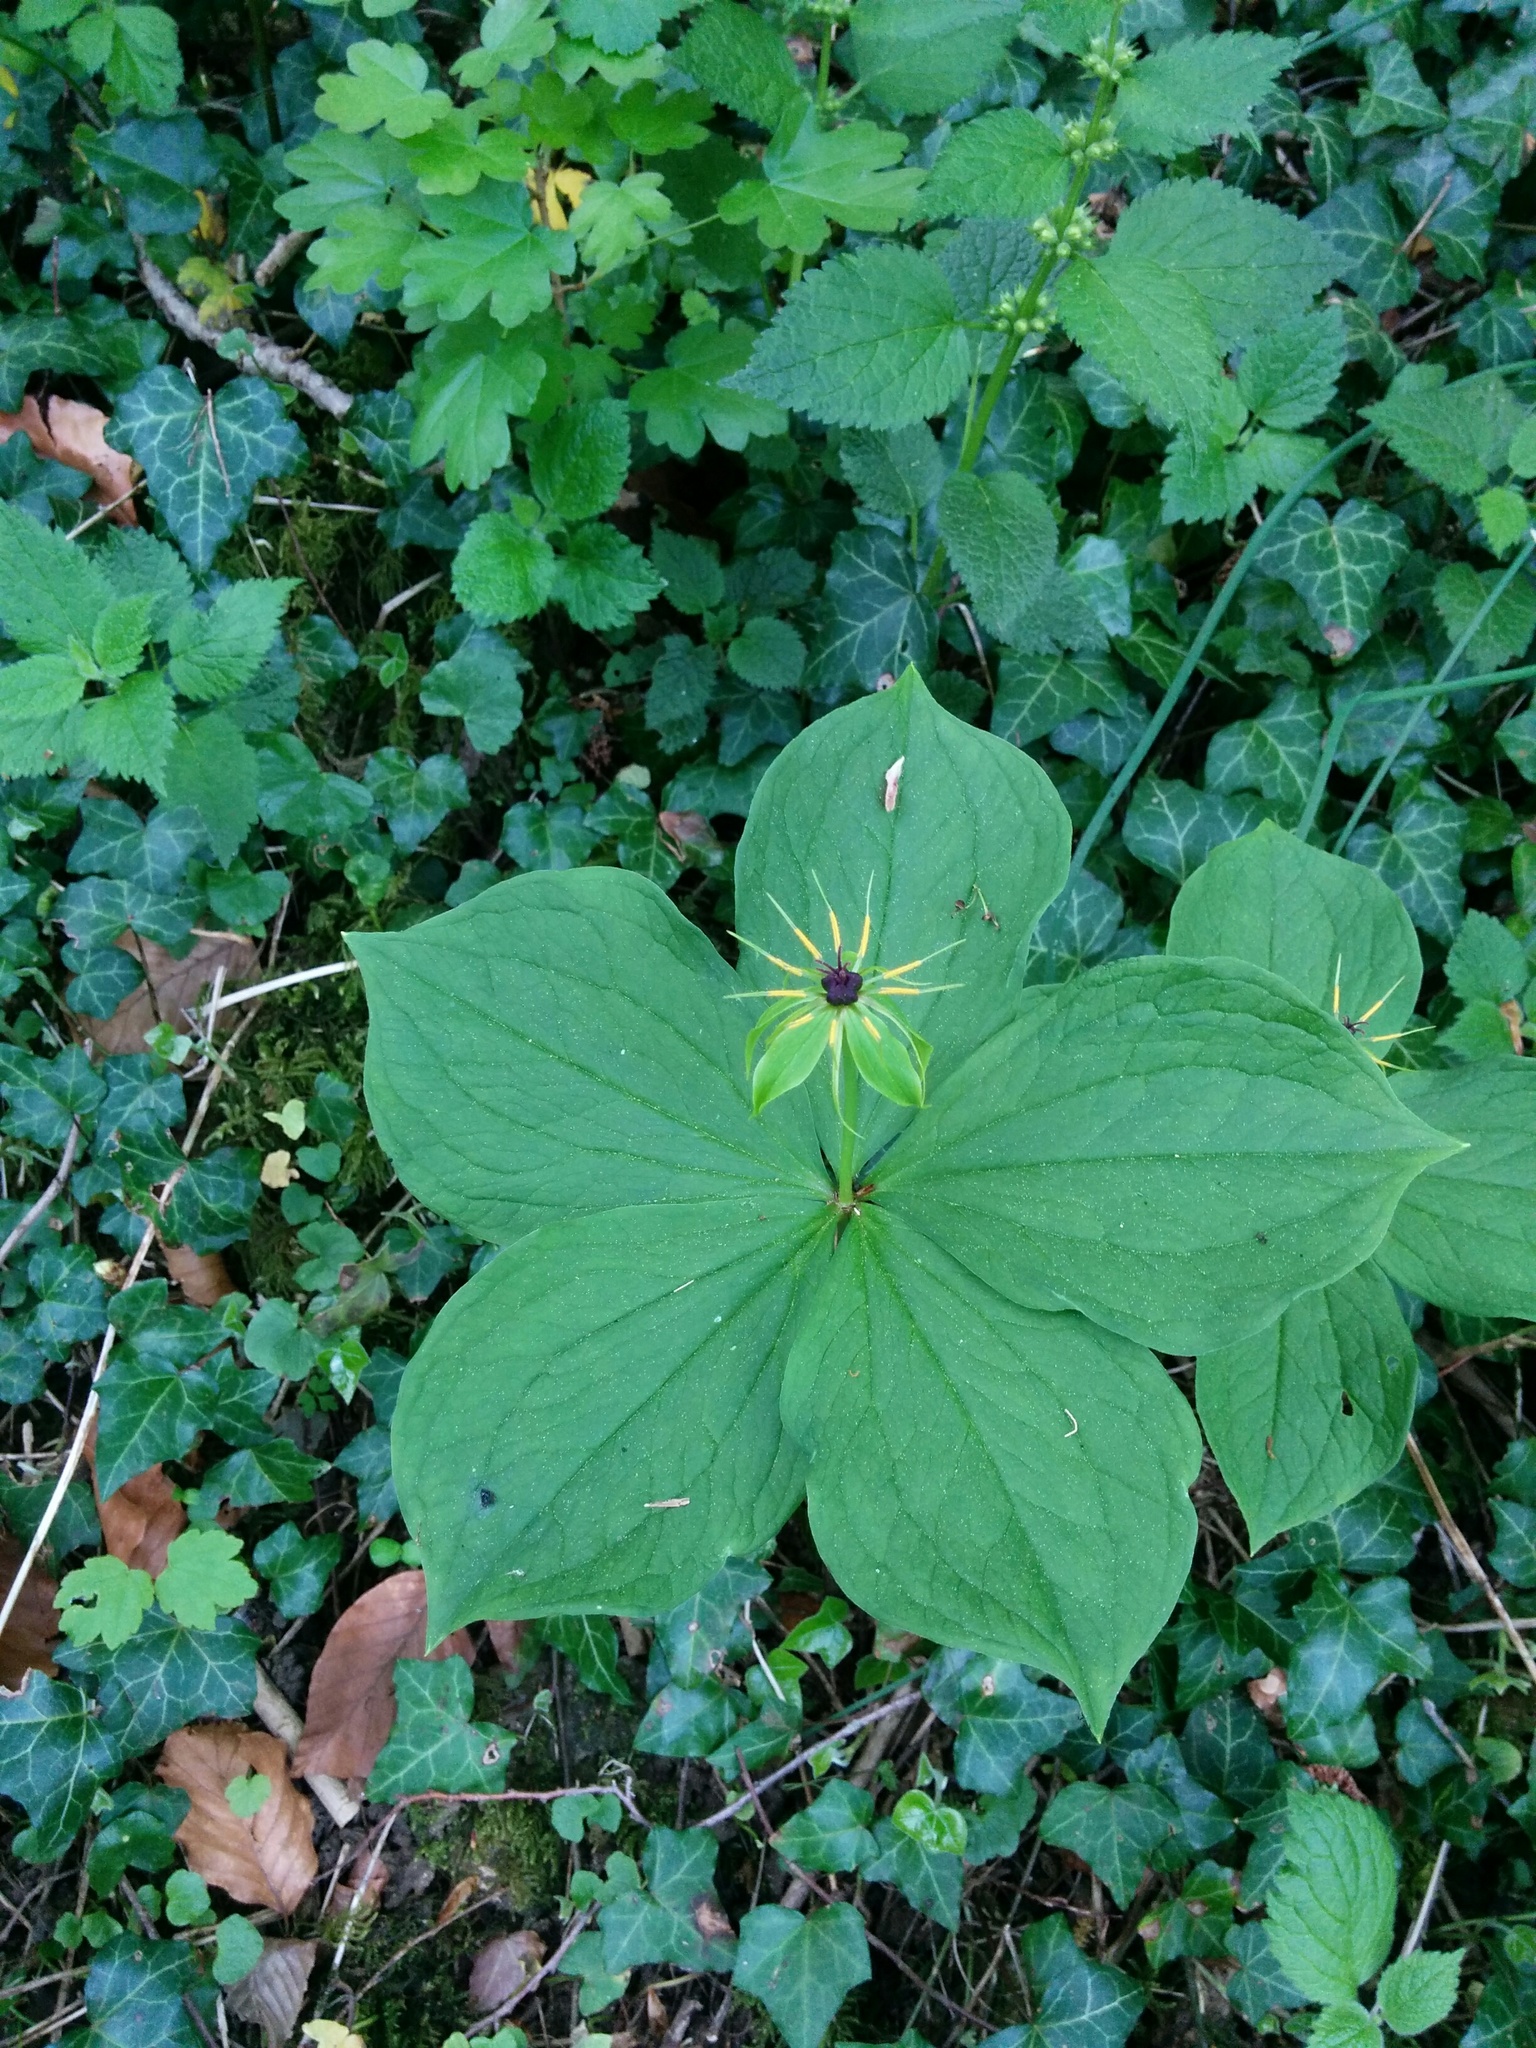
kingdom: Plantae
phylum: Tracheophyta
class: Liliopsida
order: Liliales
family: Melanthiaceae
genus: Paris
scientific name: Paris quadrifolia
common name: Herb-paris
